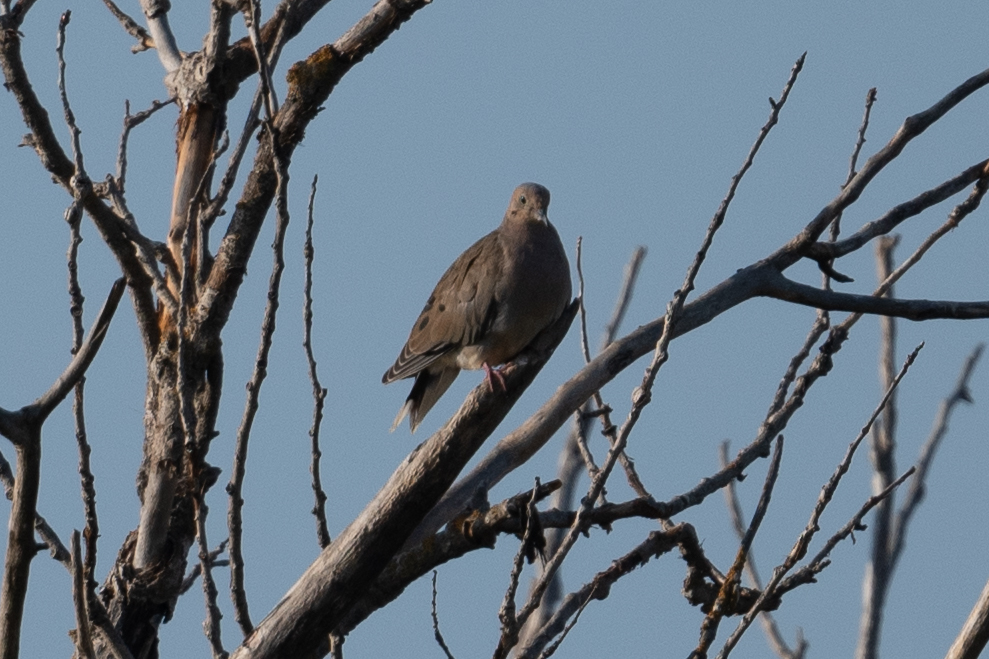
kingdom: Animalia
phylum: Chordata
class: Aves
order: Columbiformes
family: Columbidae
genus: Zenaida
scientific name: Zenaida macroura
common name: Mourning dove
